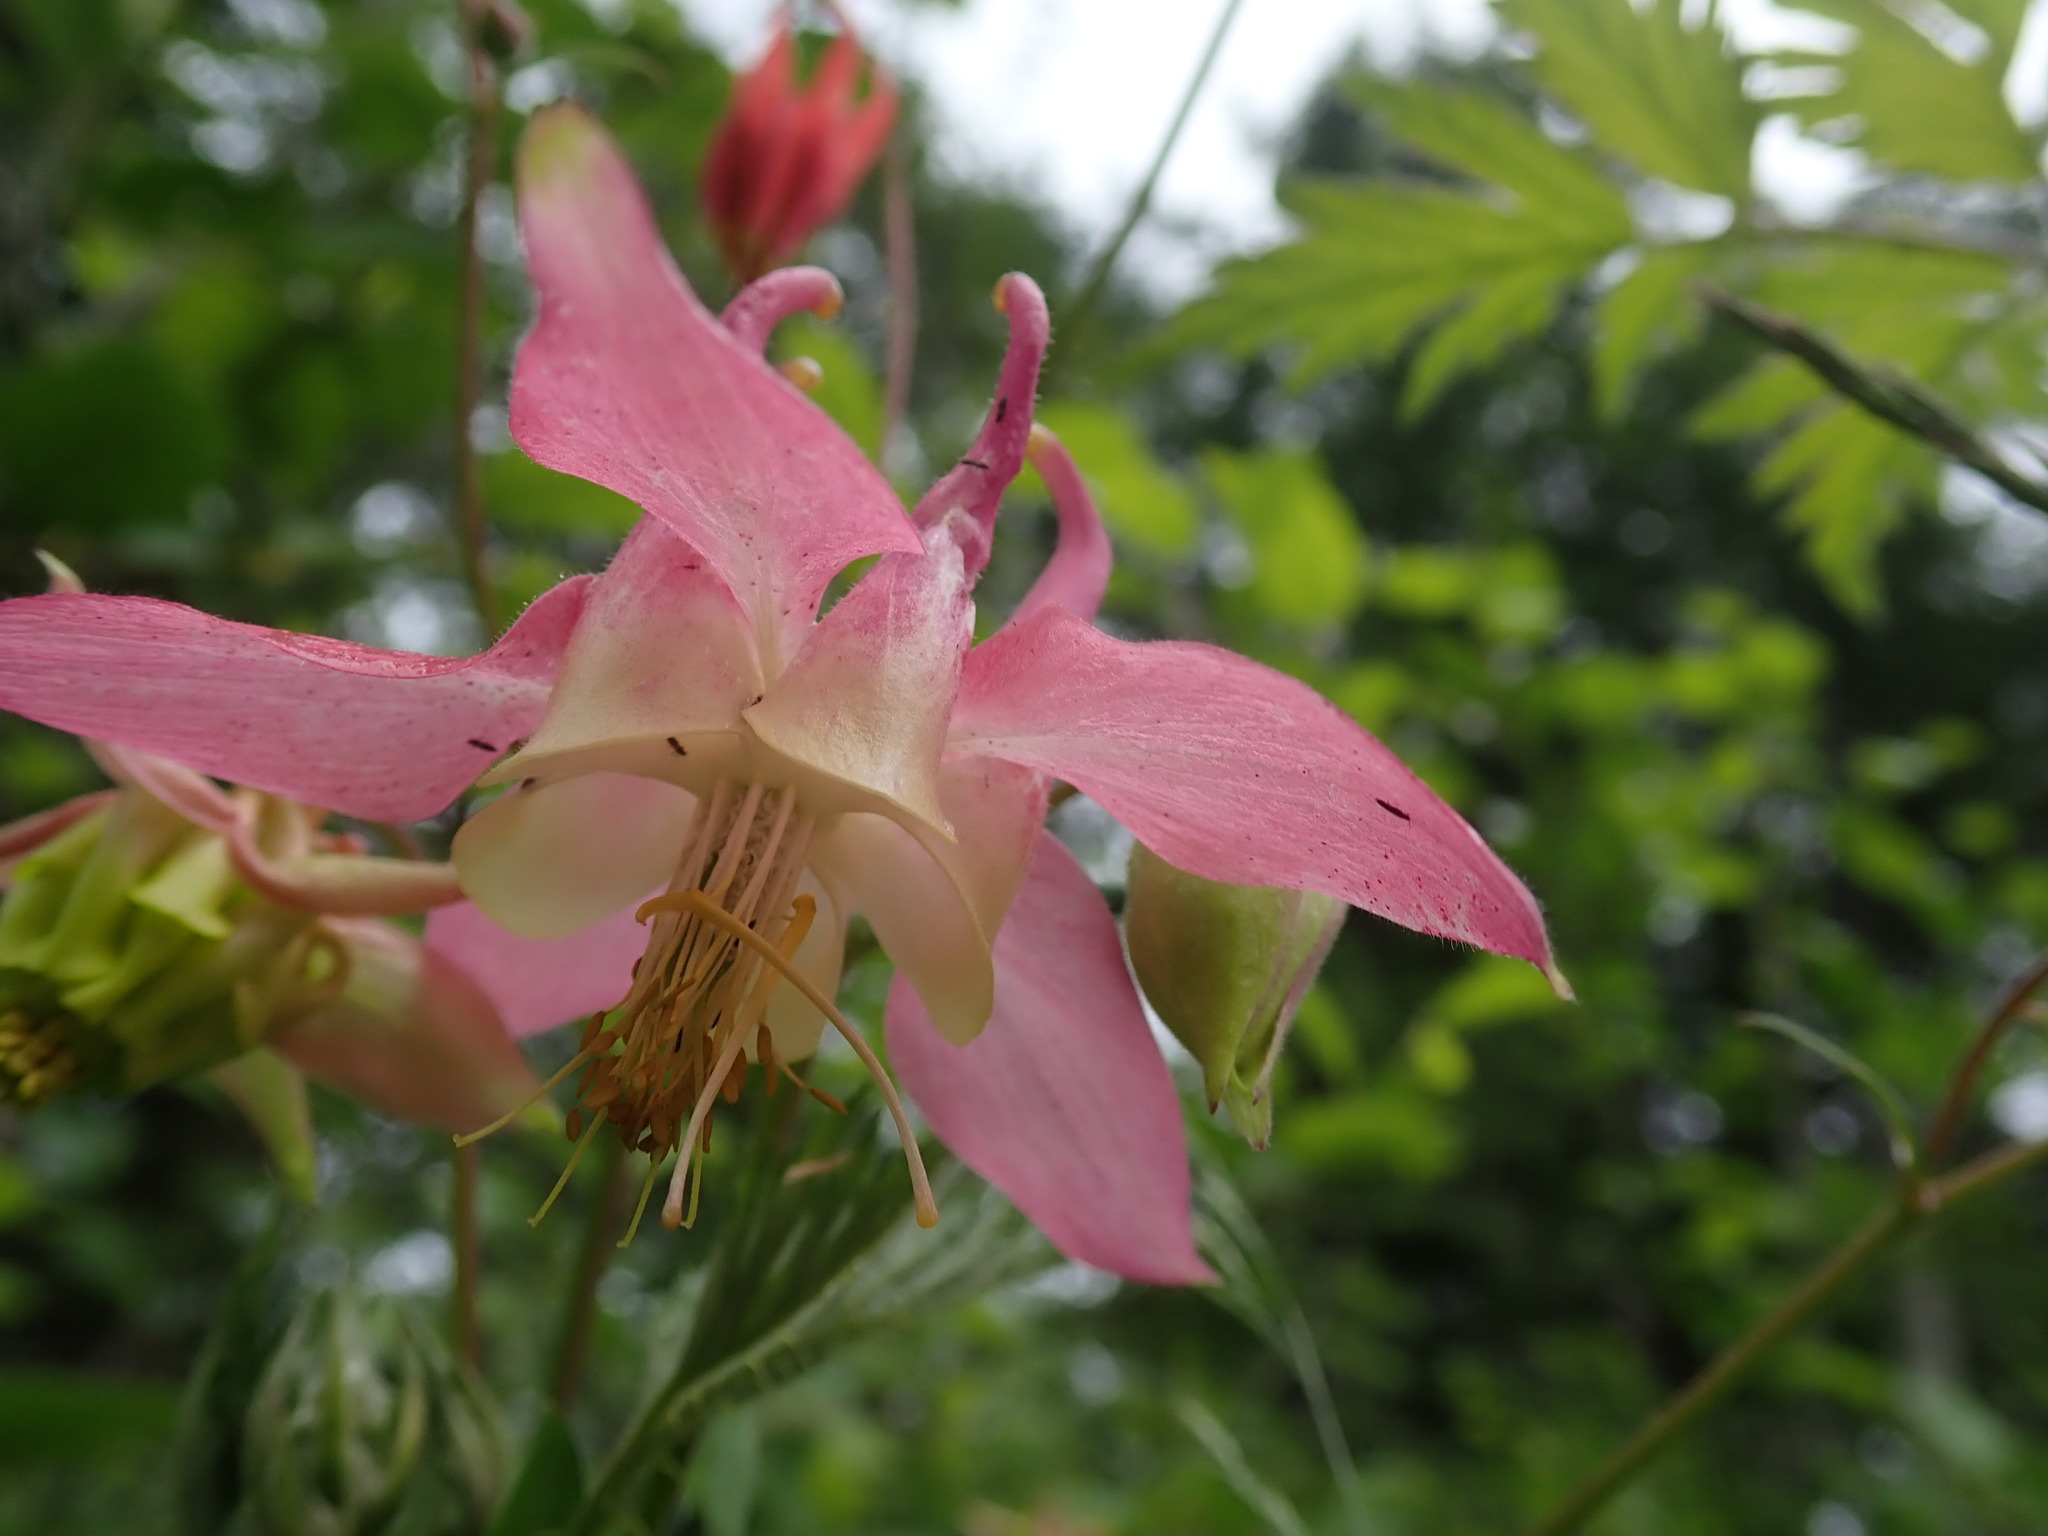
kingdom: Plantae
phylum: Tracheophyta
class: Magnoliopsida
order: Ranunculales
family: Ranunculaceae
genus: Aquilegia
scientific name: Aquilegia formosa
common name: Sitka columbine
